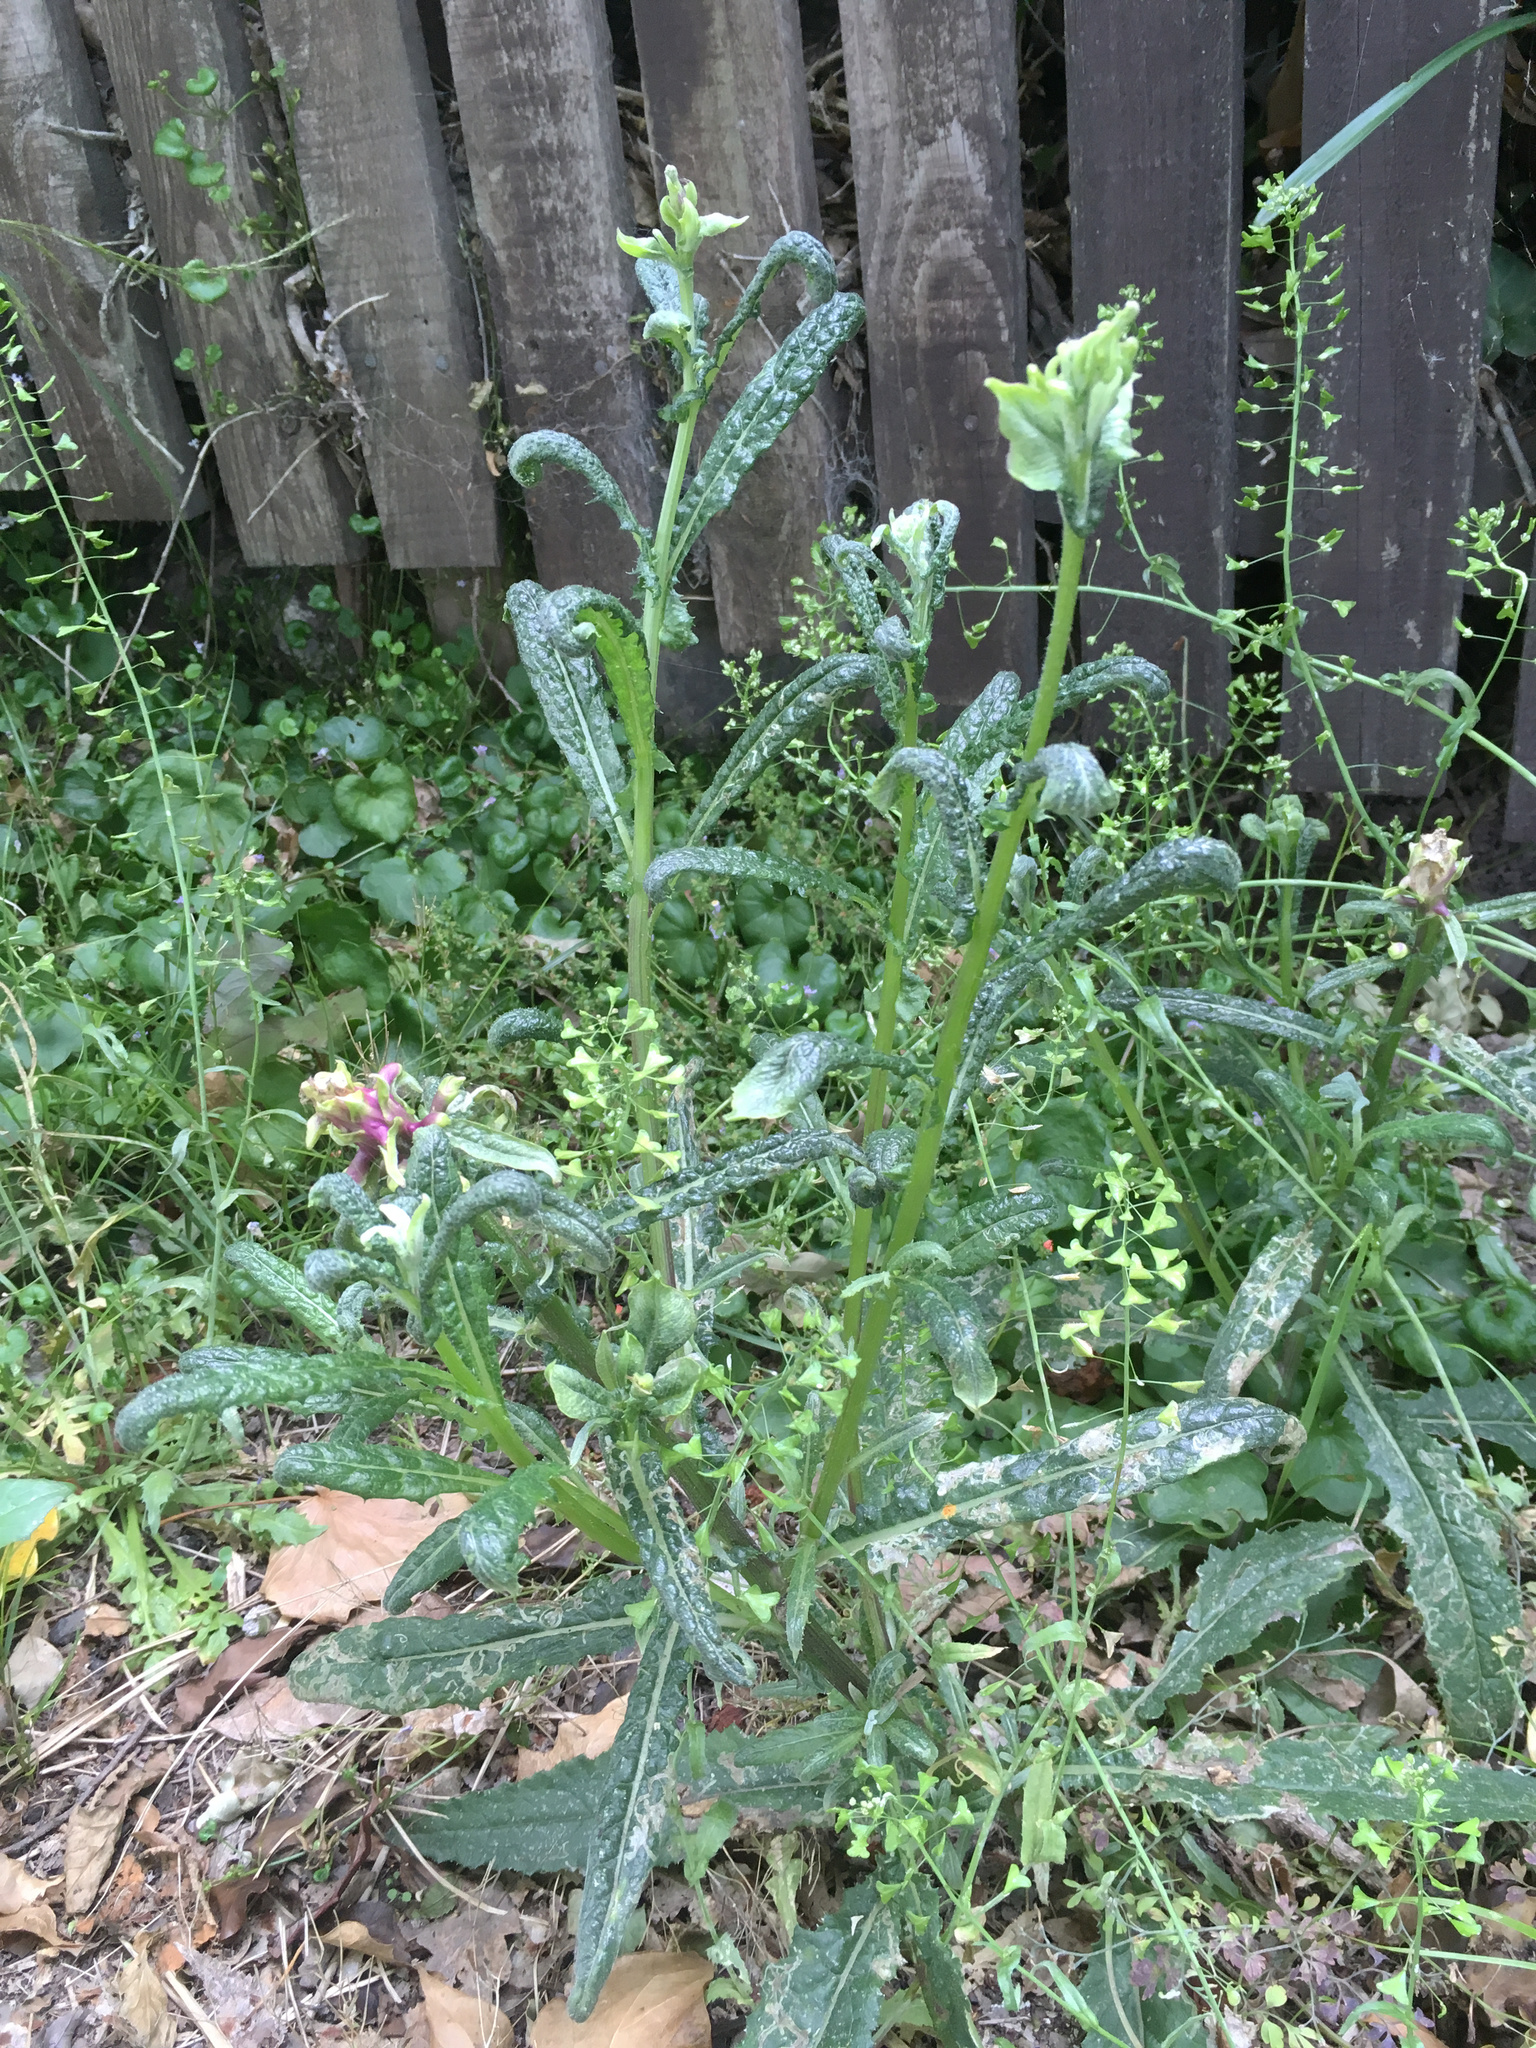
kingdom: Plantae
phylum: Tracheophyta
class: Magnoliopsida
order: Asterales
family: Asteraceae
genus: Senecio
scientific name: Senecio minimus
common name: Toothed fireweed
